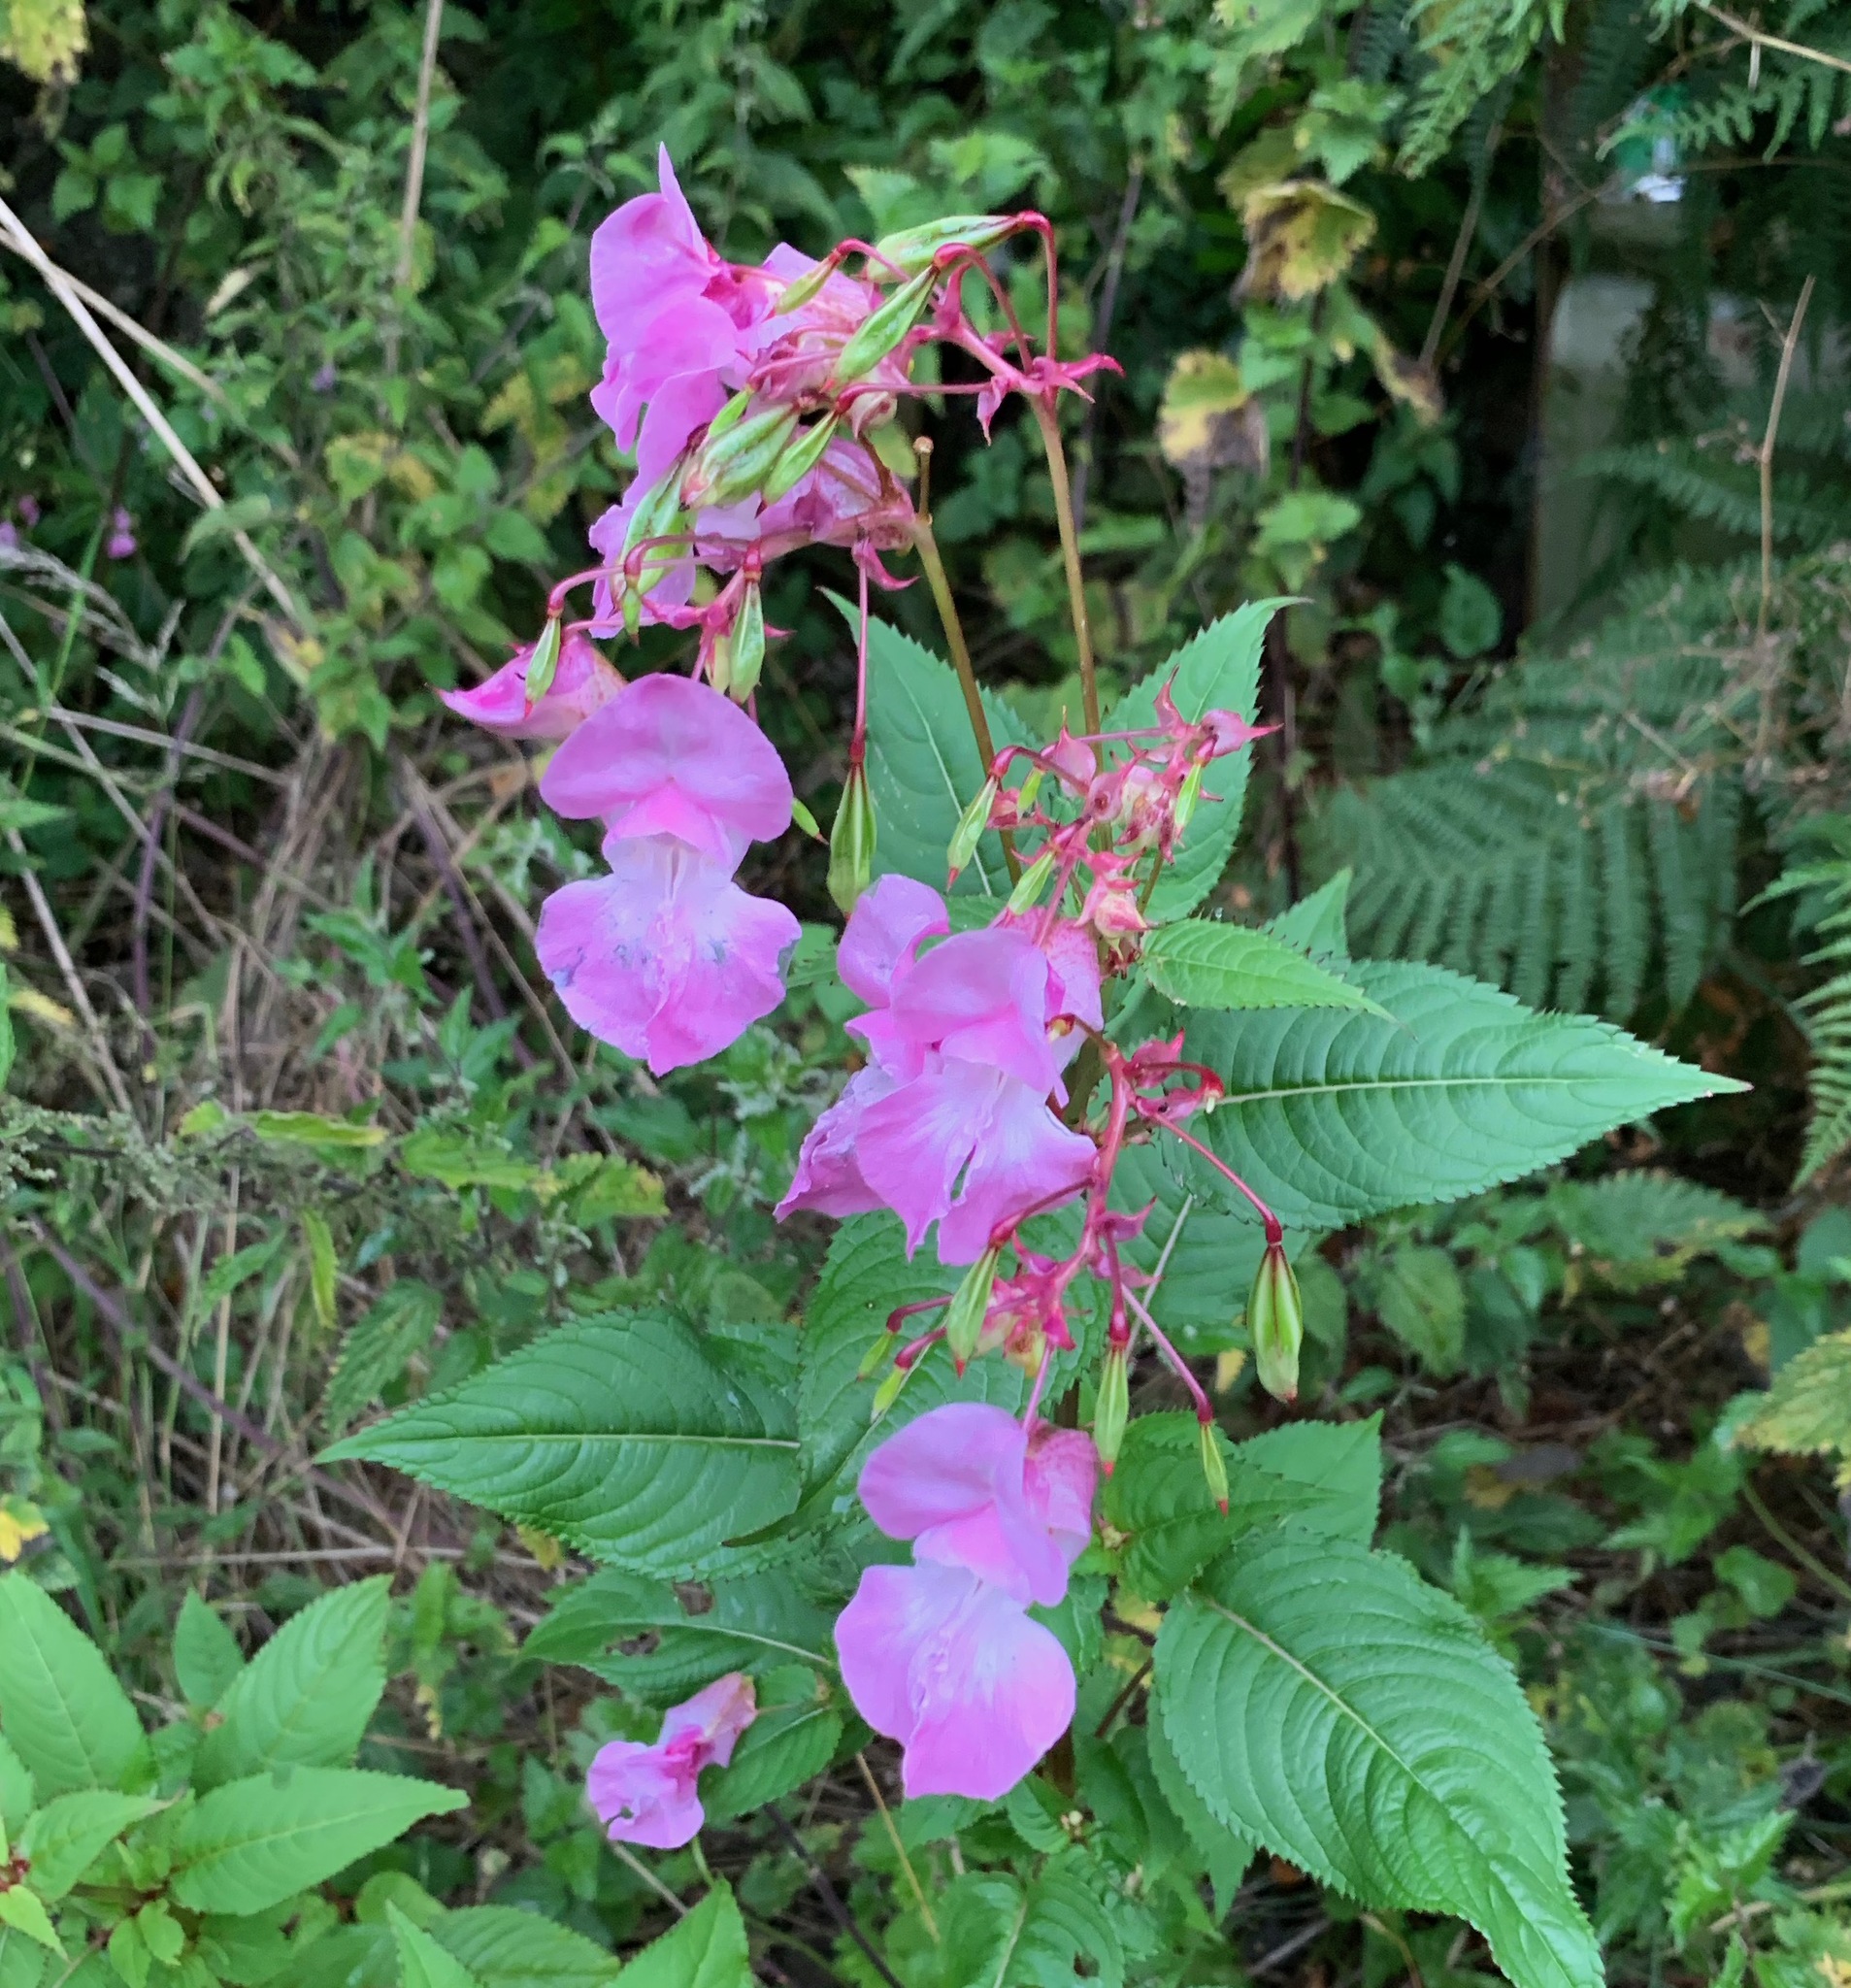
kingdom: Plantae
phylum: Tracheophyta
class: Magnoliopsida
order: Ericales
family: Balsaminaceae
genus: Impatiens
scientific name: Impatiens glandulifera
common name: Himalayan balsam
